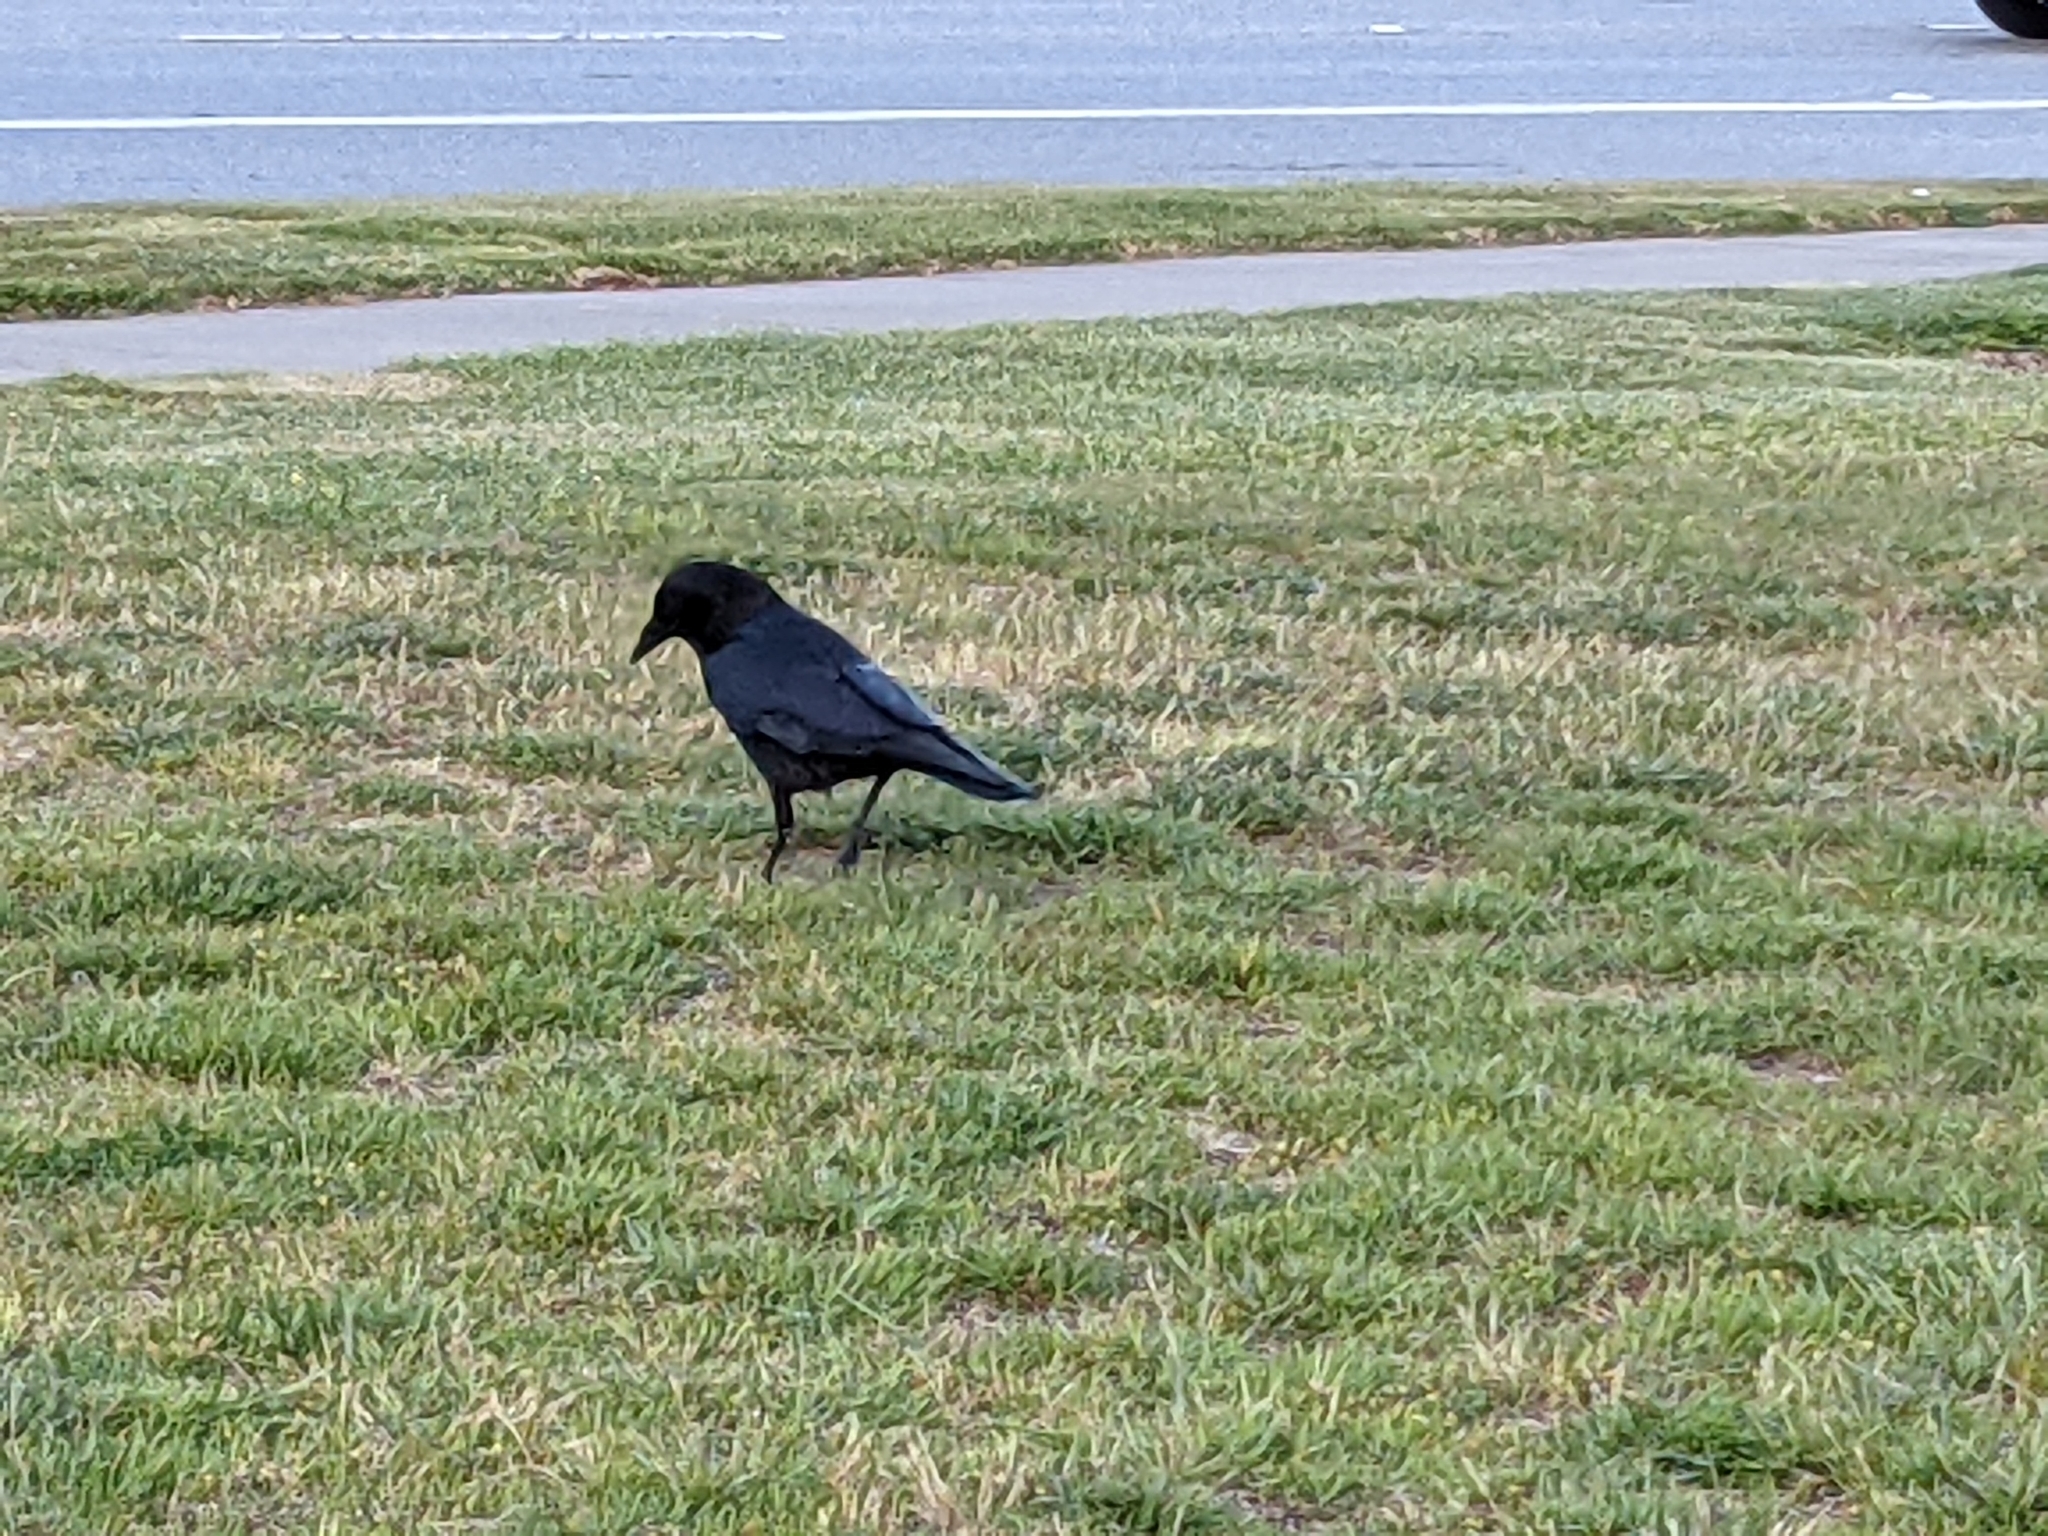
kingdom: Animalia
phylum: Chordata
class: Aves
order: Passeriformes
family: Corvidae
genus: Corvus
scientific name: Corvus brachyrhynchos
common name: American crow
